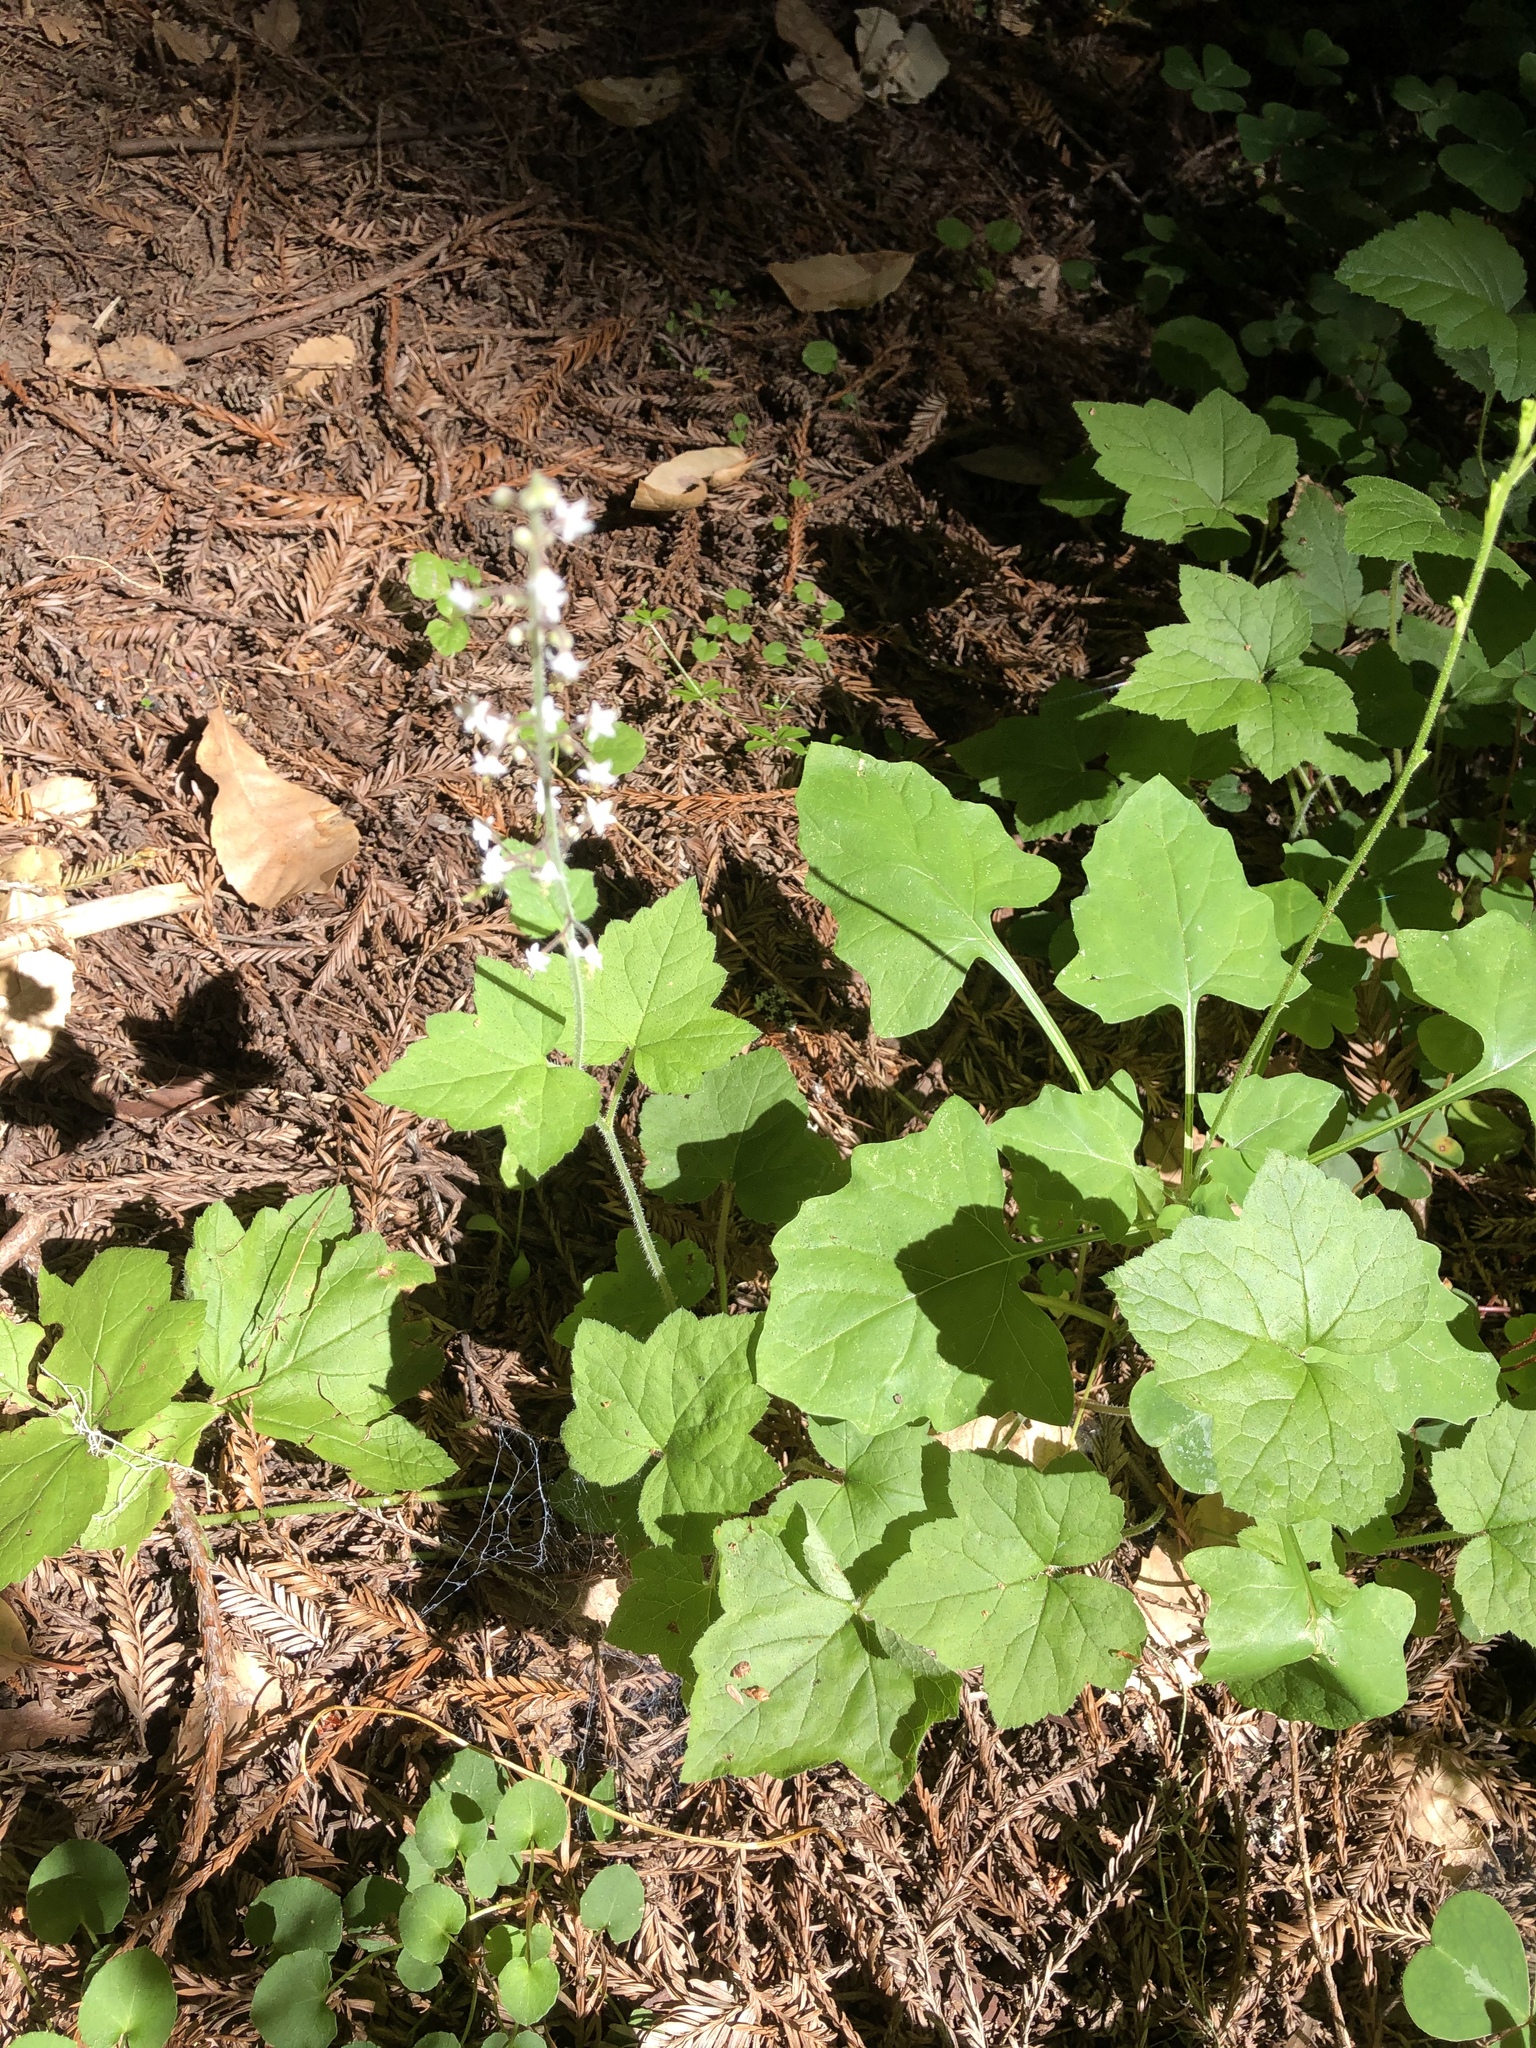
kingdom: Plantae
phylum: Tracheophyta
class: Magnoliopsida
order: Saxifragales
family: Saxifragaceae
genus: Tiarella
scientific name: Tiarella trifoliata
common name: Sugar-scoop
